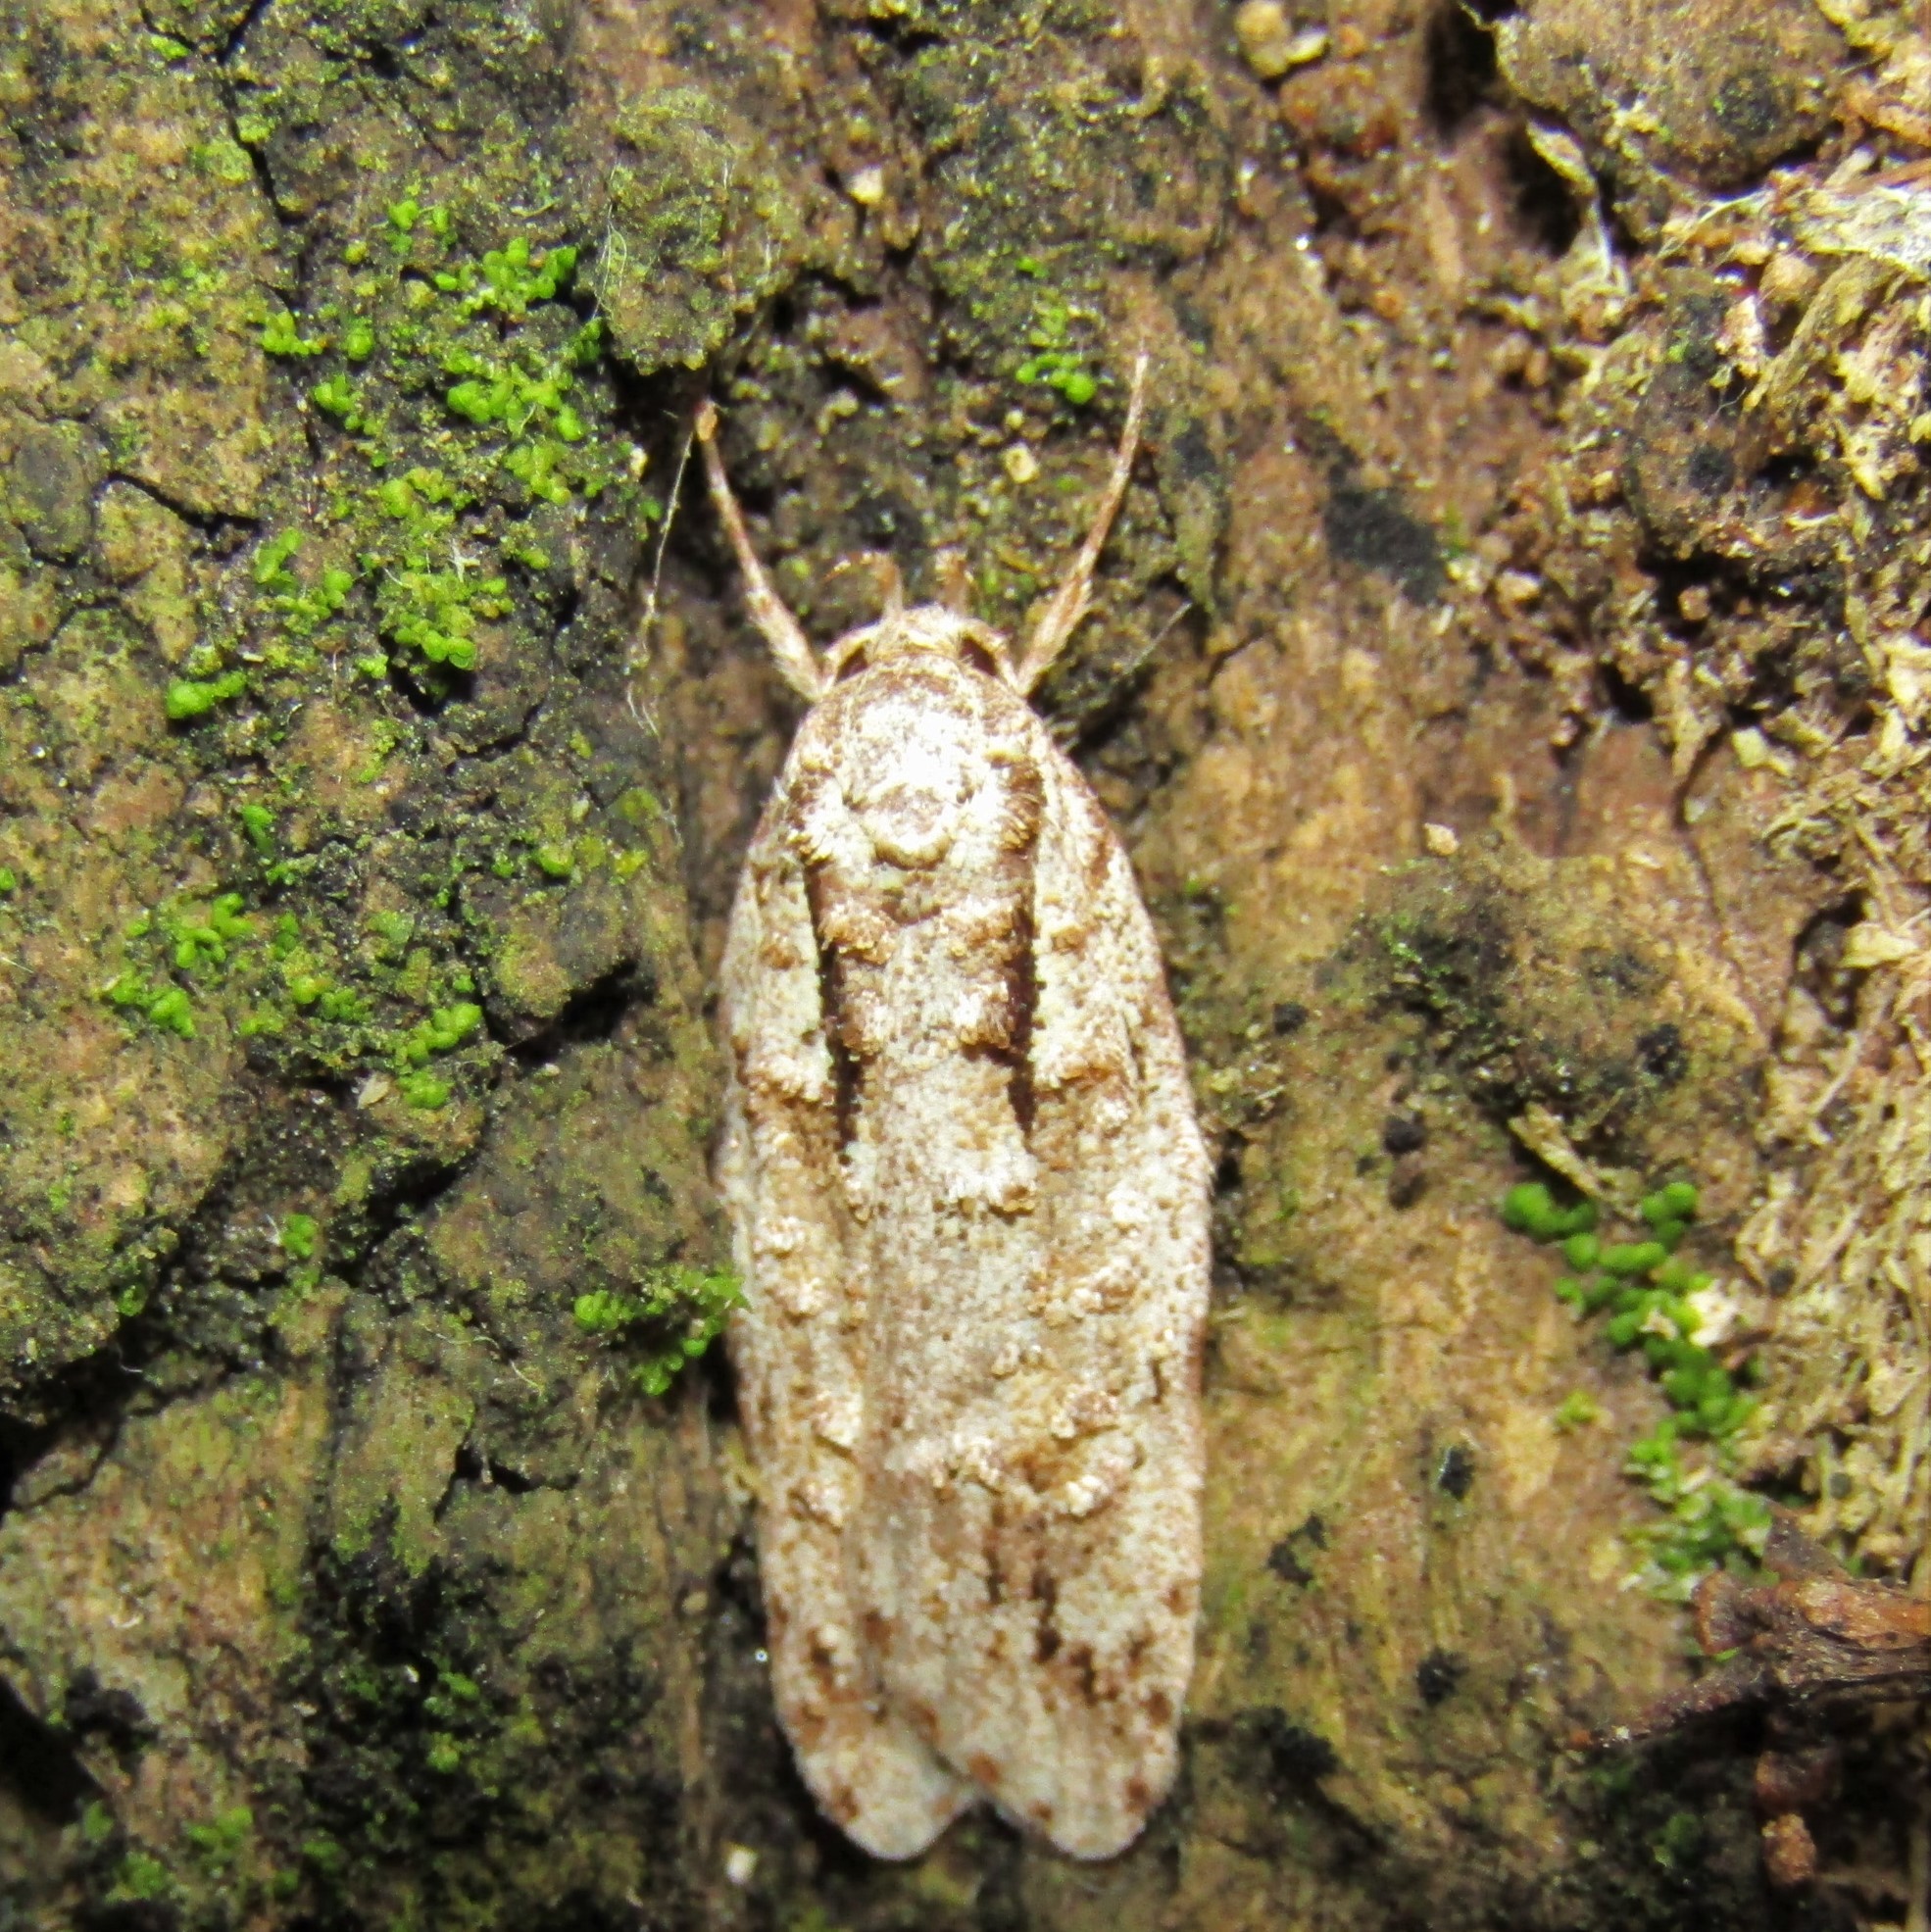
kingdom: Animalia
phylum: Arthropoda
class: Insecta
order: Lepidoptera
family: Oecophoridae
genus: Izatha
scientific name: Izatha attactella
